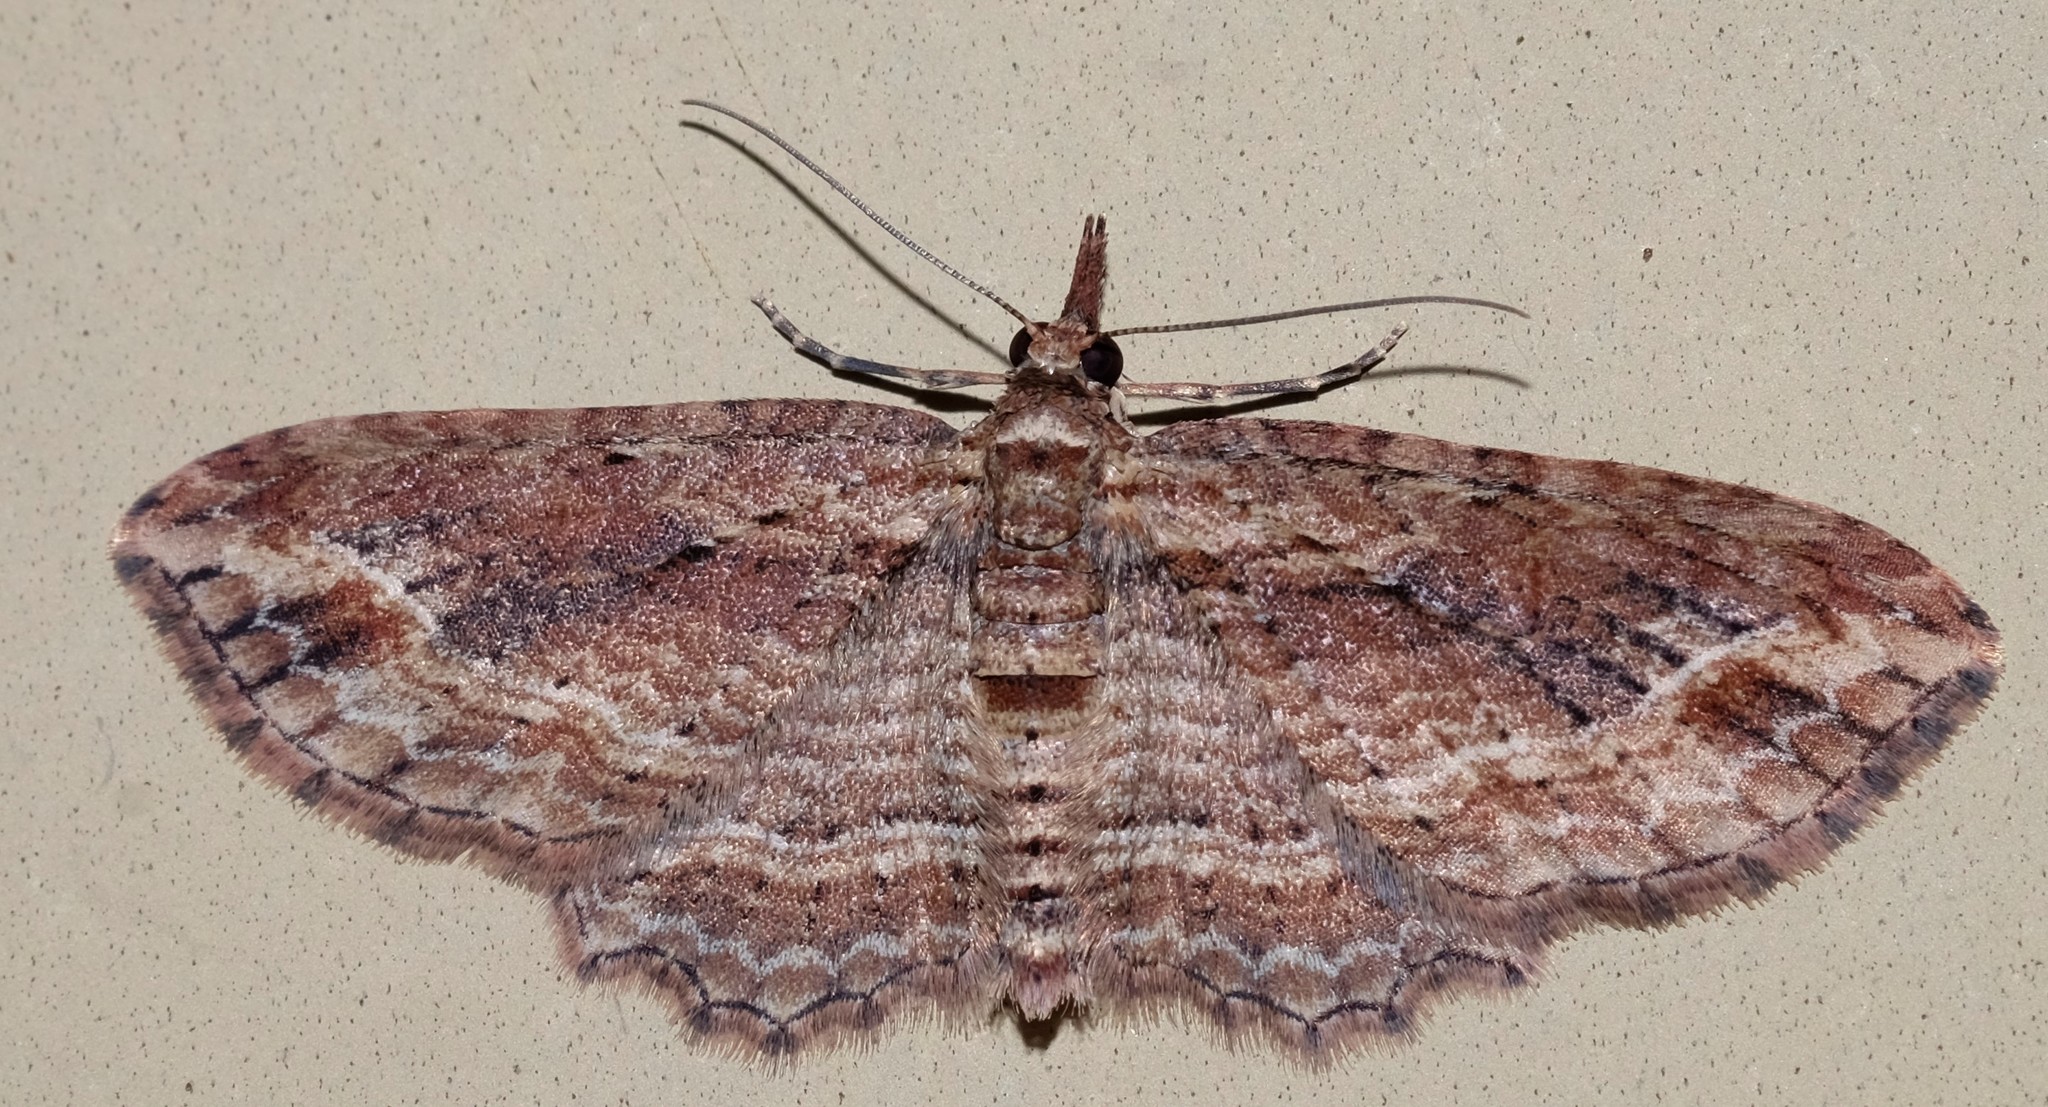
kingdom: Animalia
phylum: Arthropoda
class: Insecta
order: Lepidoptera
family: Geometridae
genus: Chloroclystis
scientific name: Chloroclystis filata
